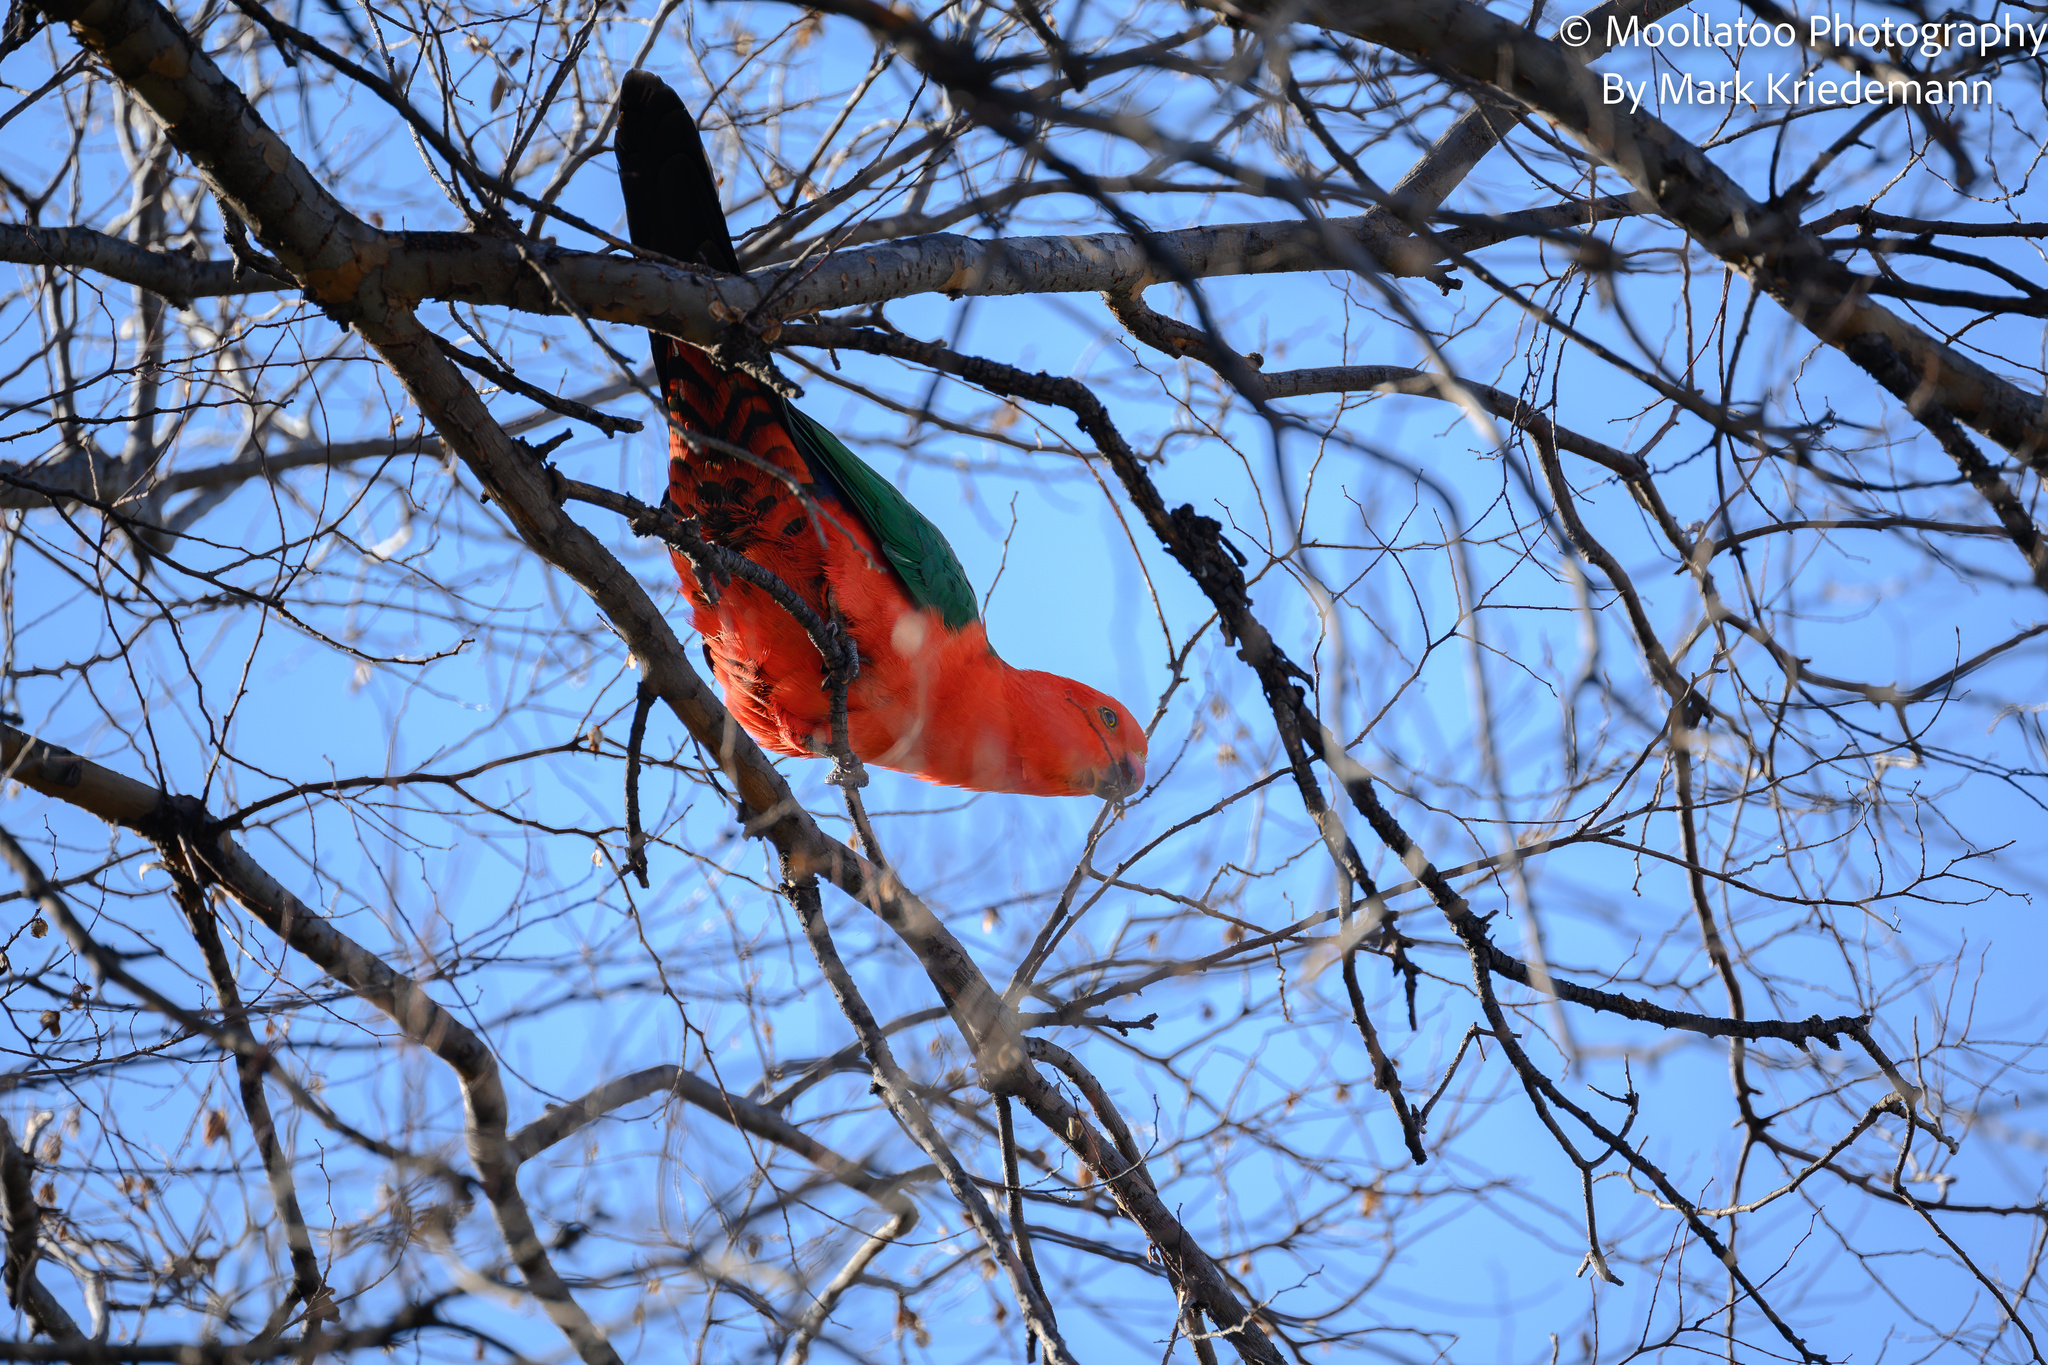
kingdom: Animalia
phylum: Chordata
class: Aves
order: Psittaciformes
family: Psittacidae
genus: Alisterus
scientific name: Alisterus scapularis
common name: Australian king parrot
